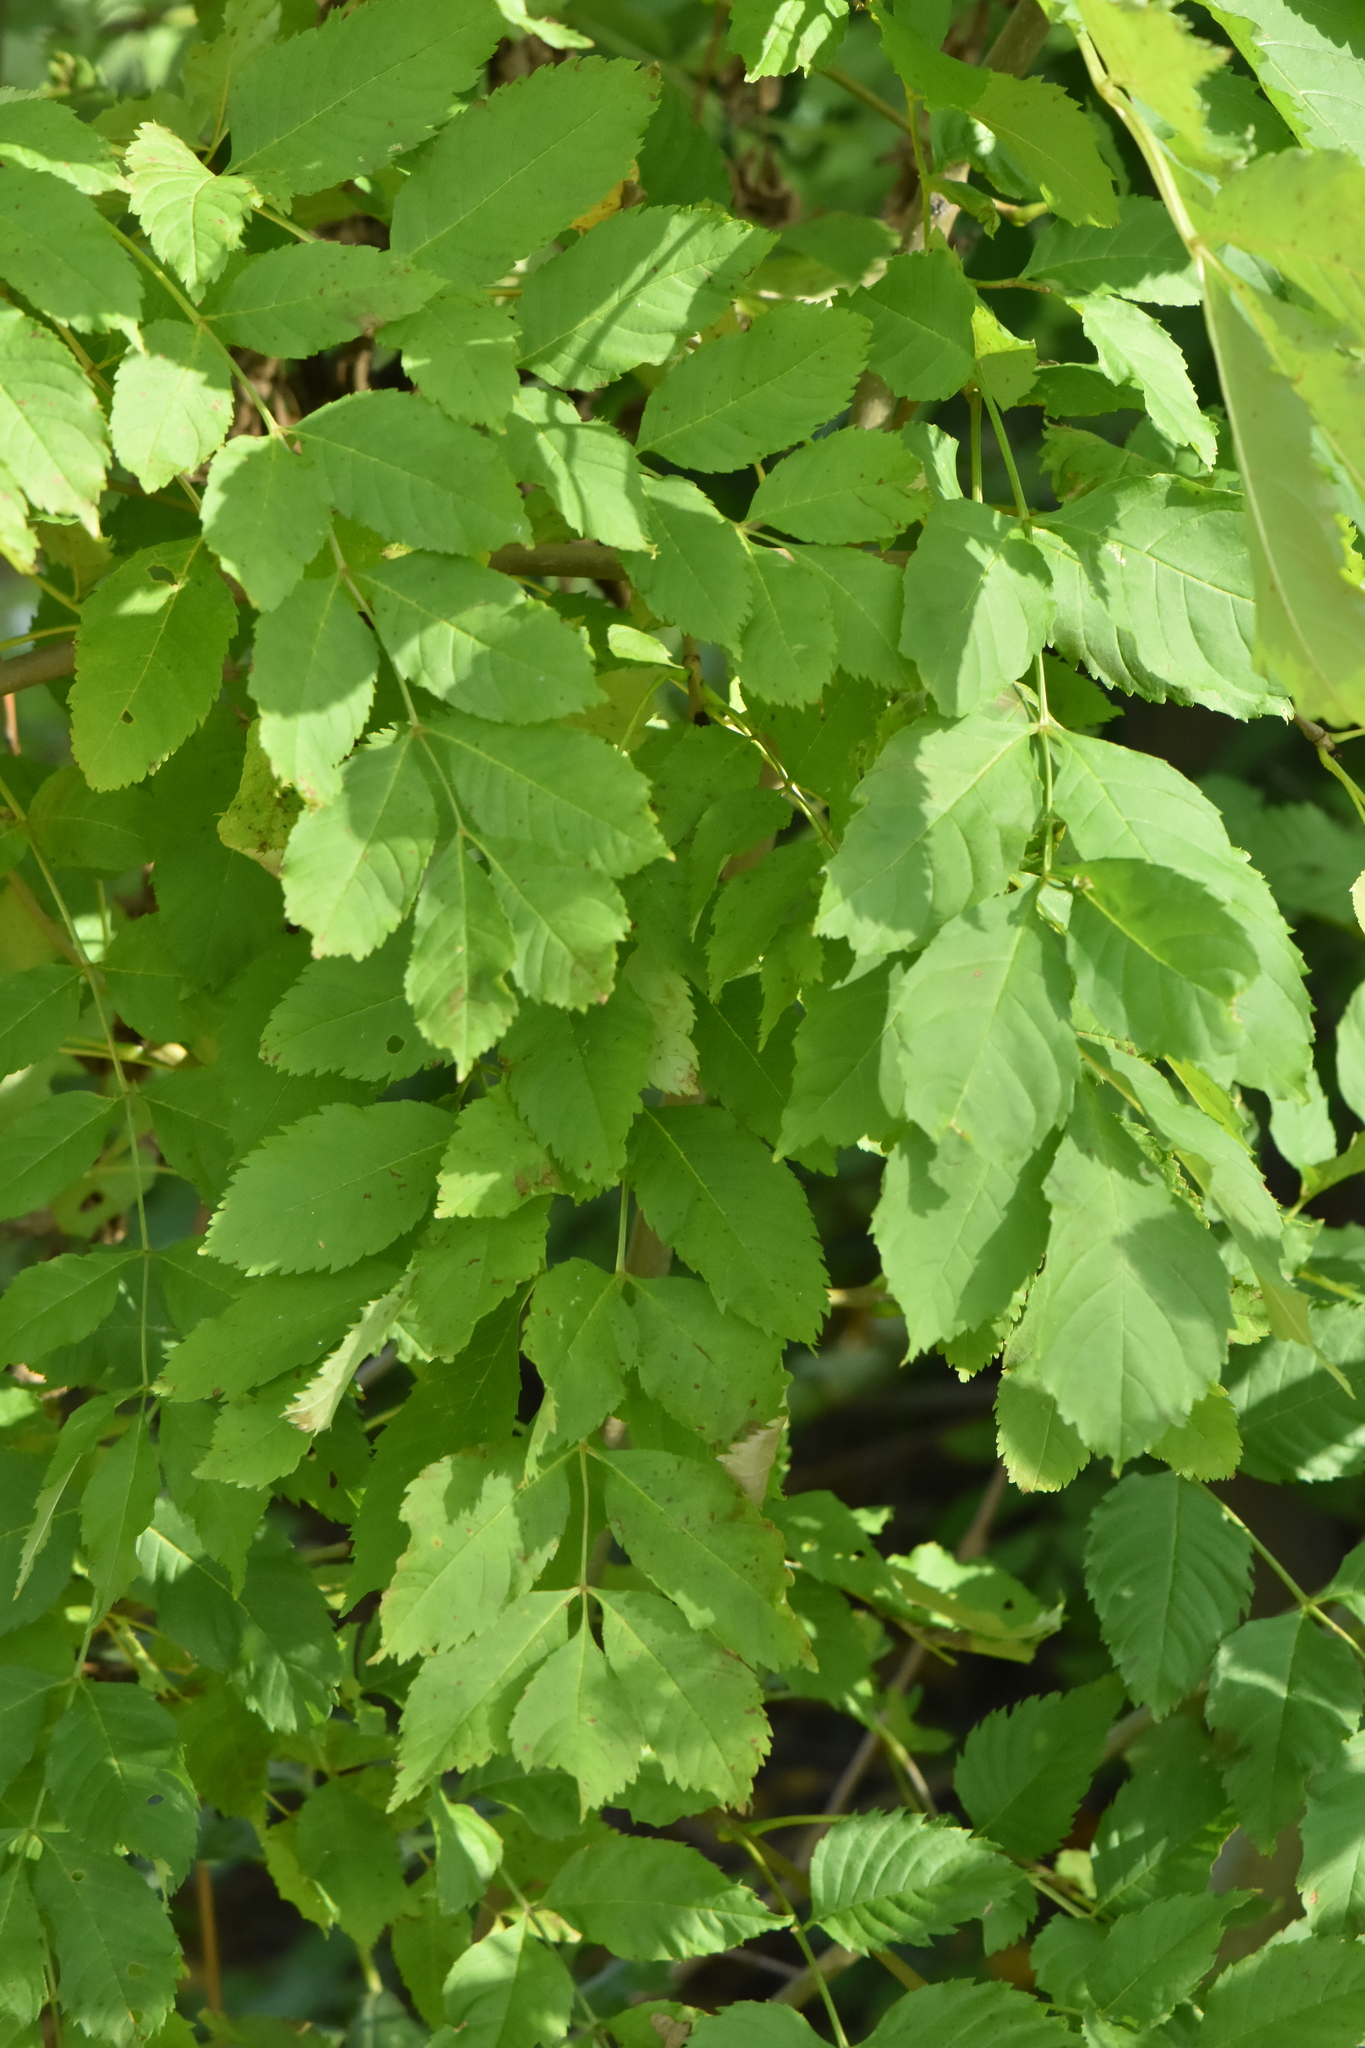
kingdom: Plantae
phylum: Tracheophyta
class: Magnoliopsida
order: Lamiales
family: Oleaceae
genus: Fraxinus
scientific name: Fraxinus excelsior
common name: European ash
